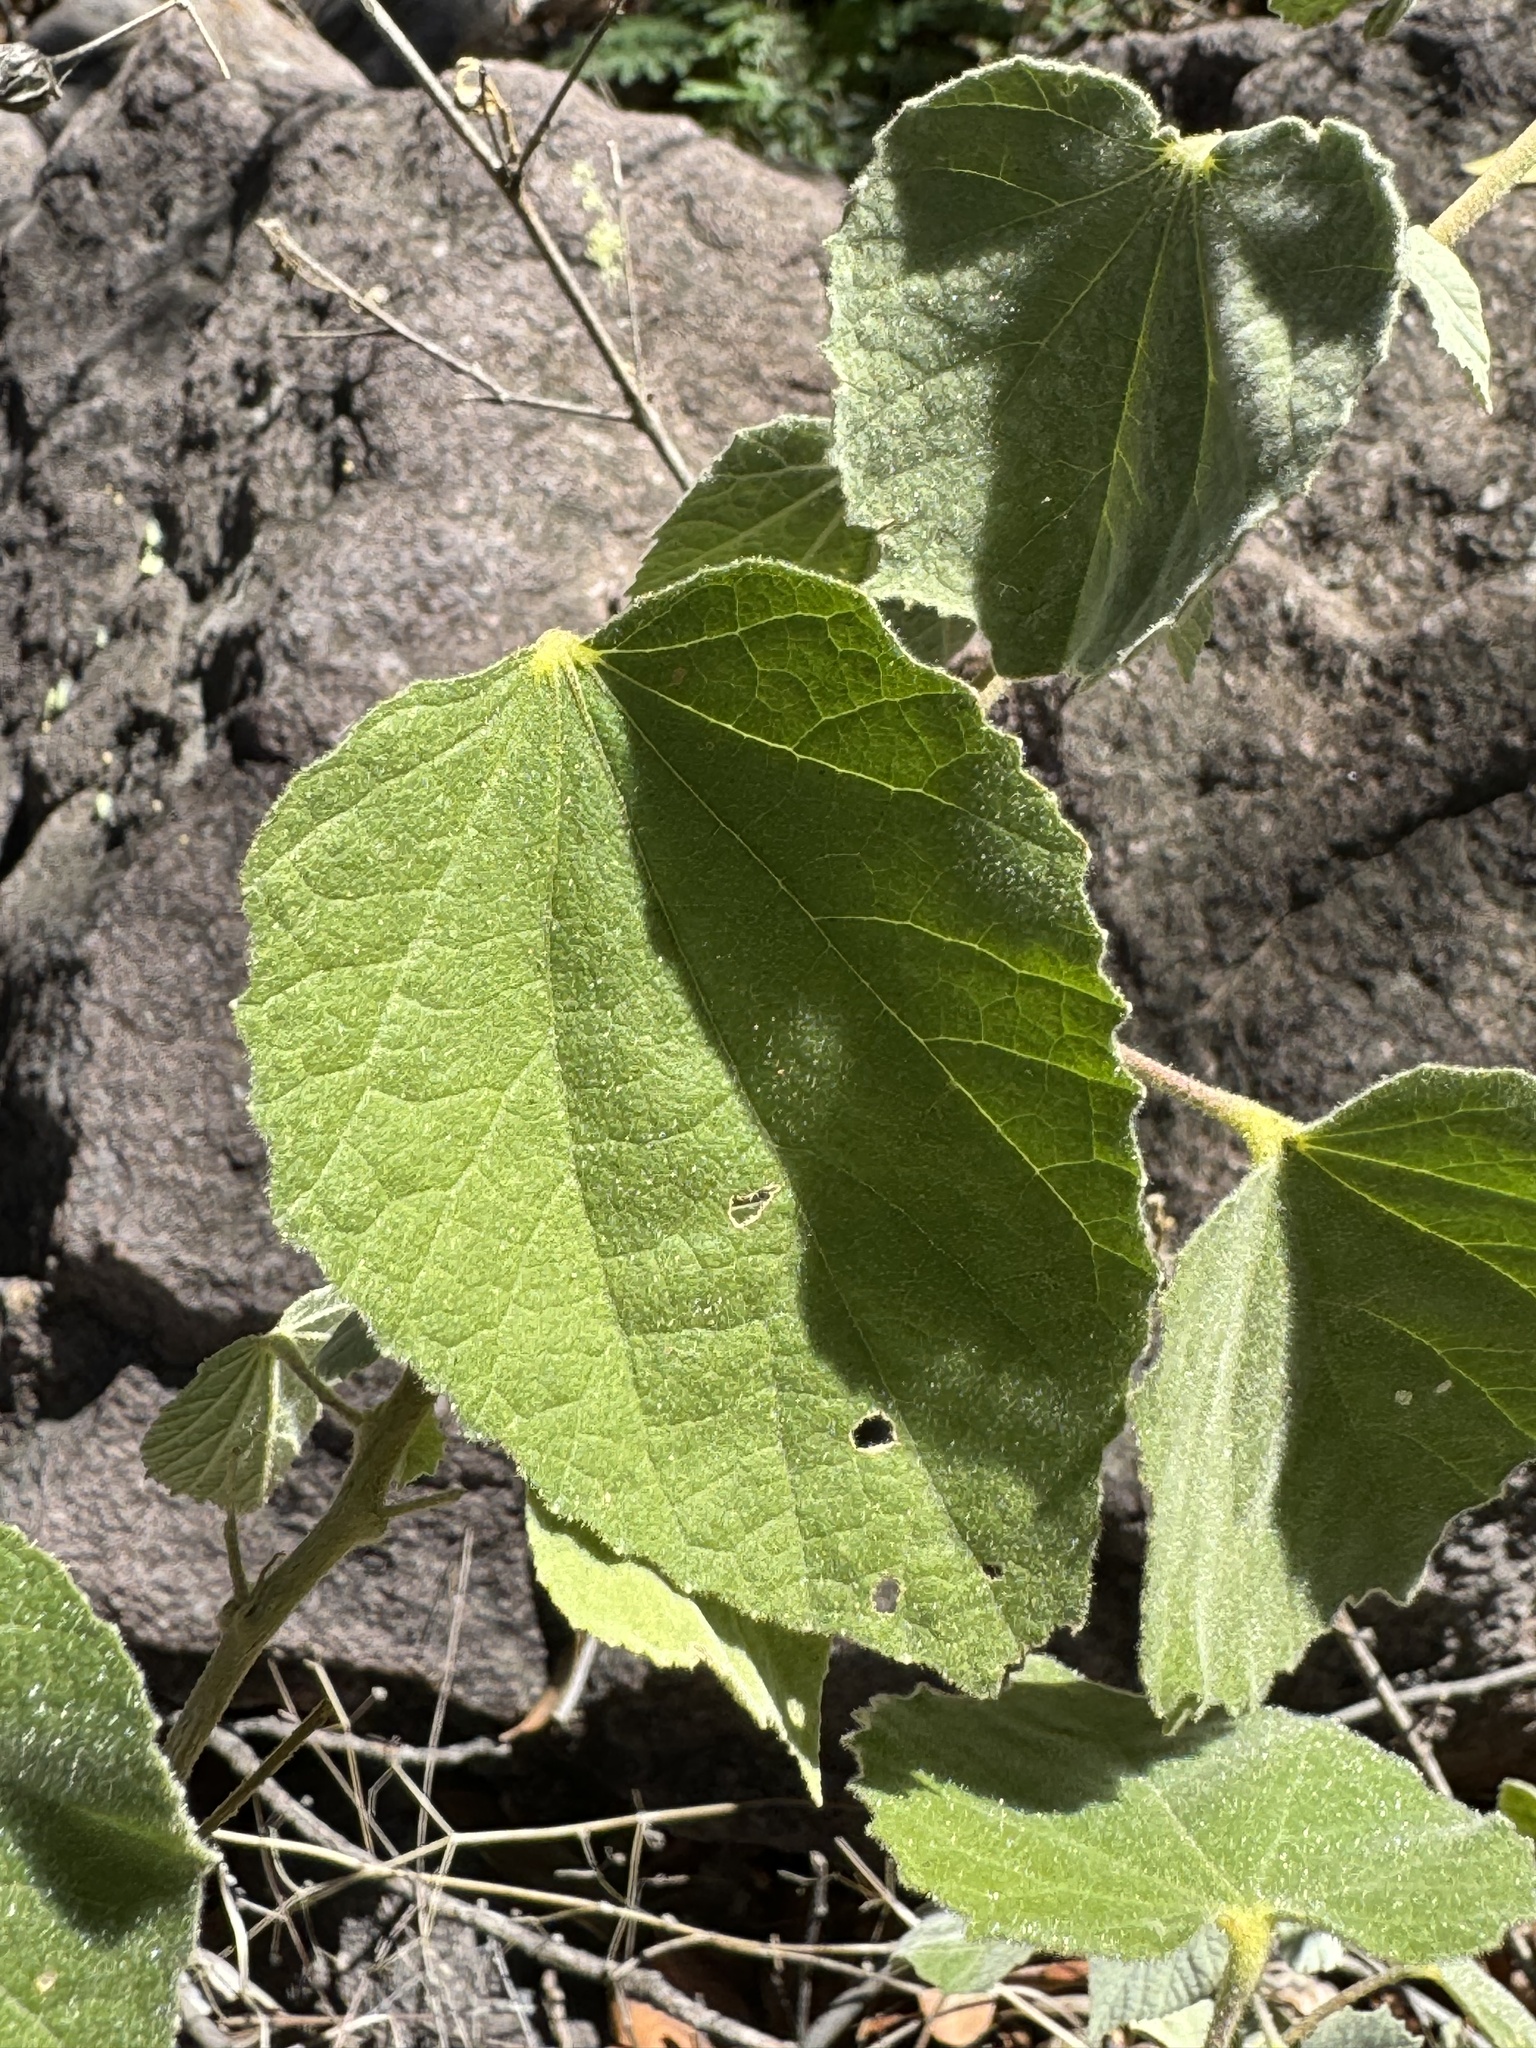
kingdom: Plantae
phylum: Tracheophyta
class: Magnoliopsida
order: Malvales
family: Malvaceae
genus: Abutilon
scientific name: Abutilon abutiloides
